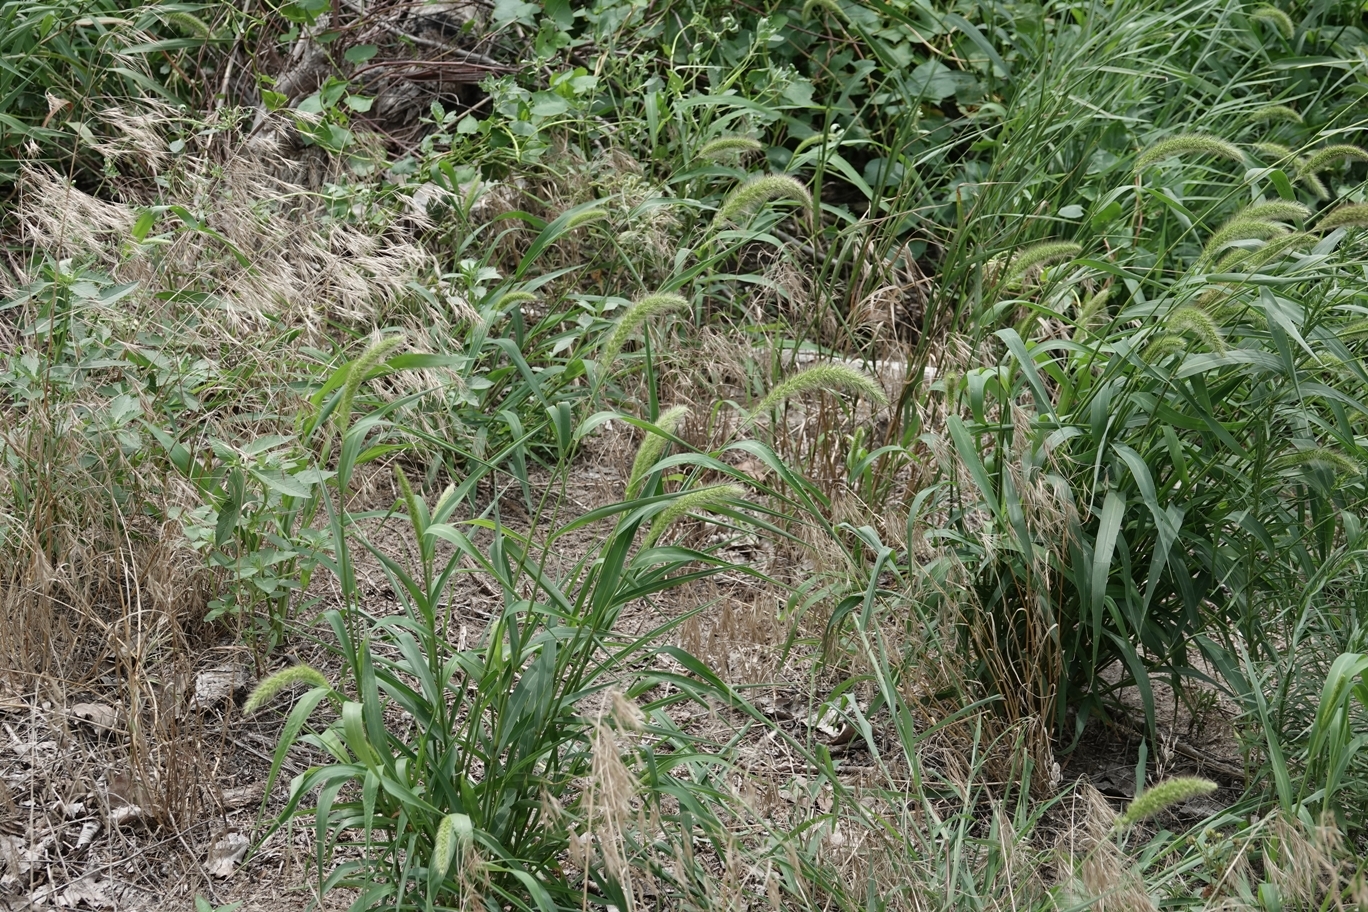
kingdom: Plantae
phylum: Tracheophyta
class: Liliopsida
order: Poales
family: Poaceae
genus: Setaria
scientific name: Setaria faberi
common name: Nodding bristle-grass
